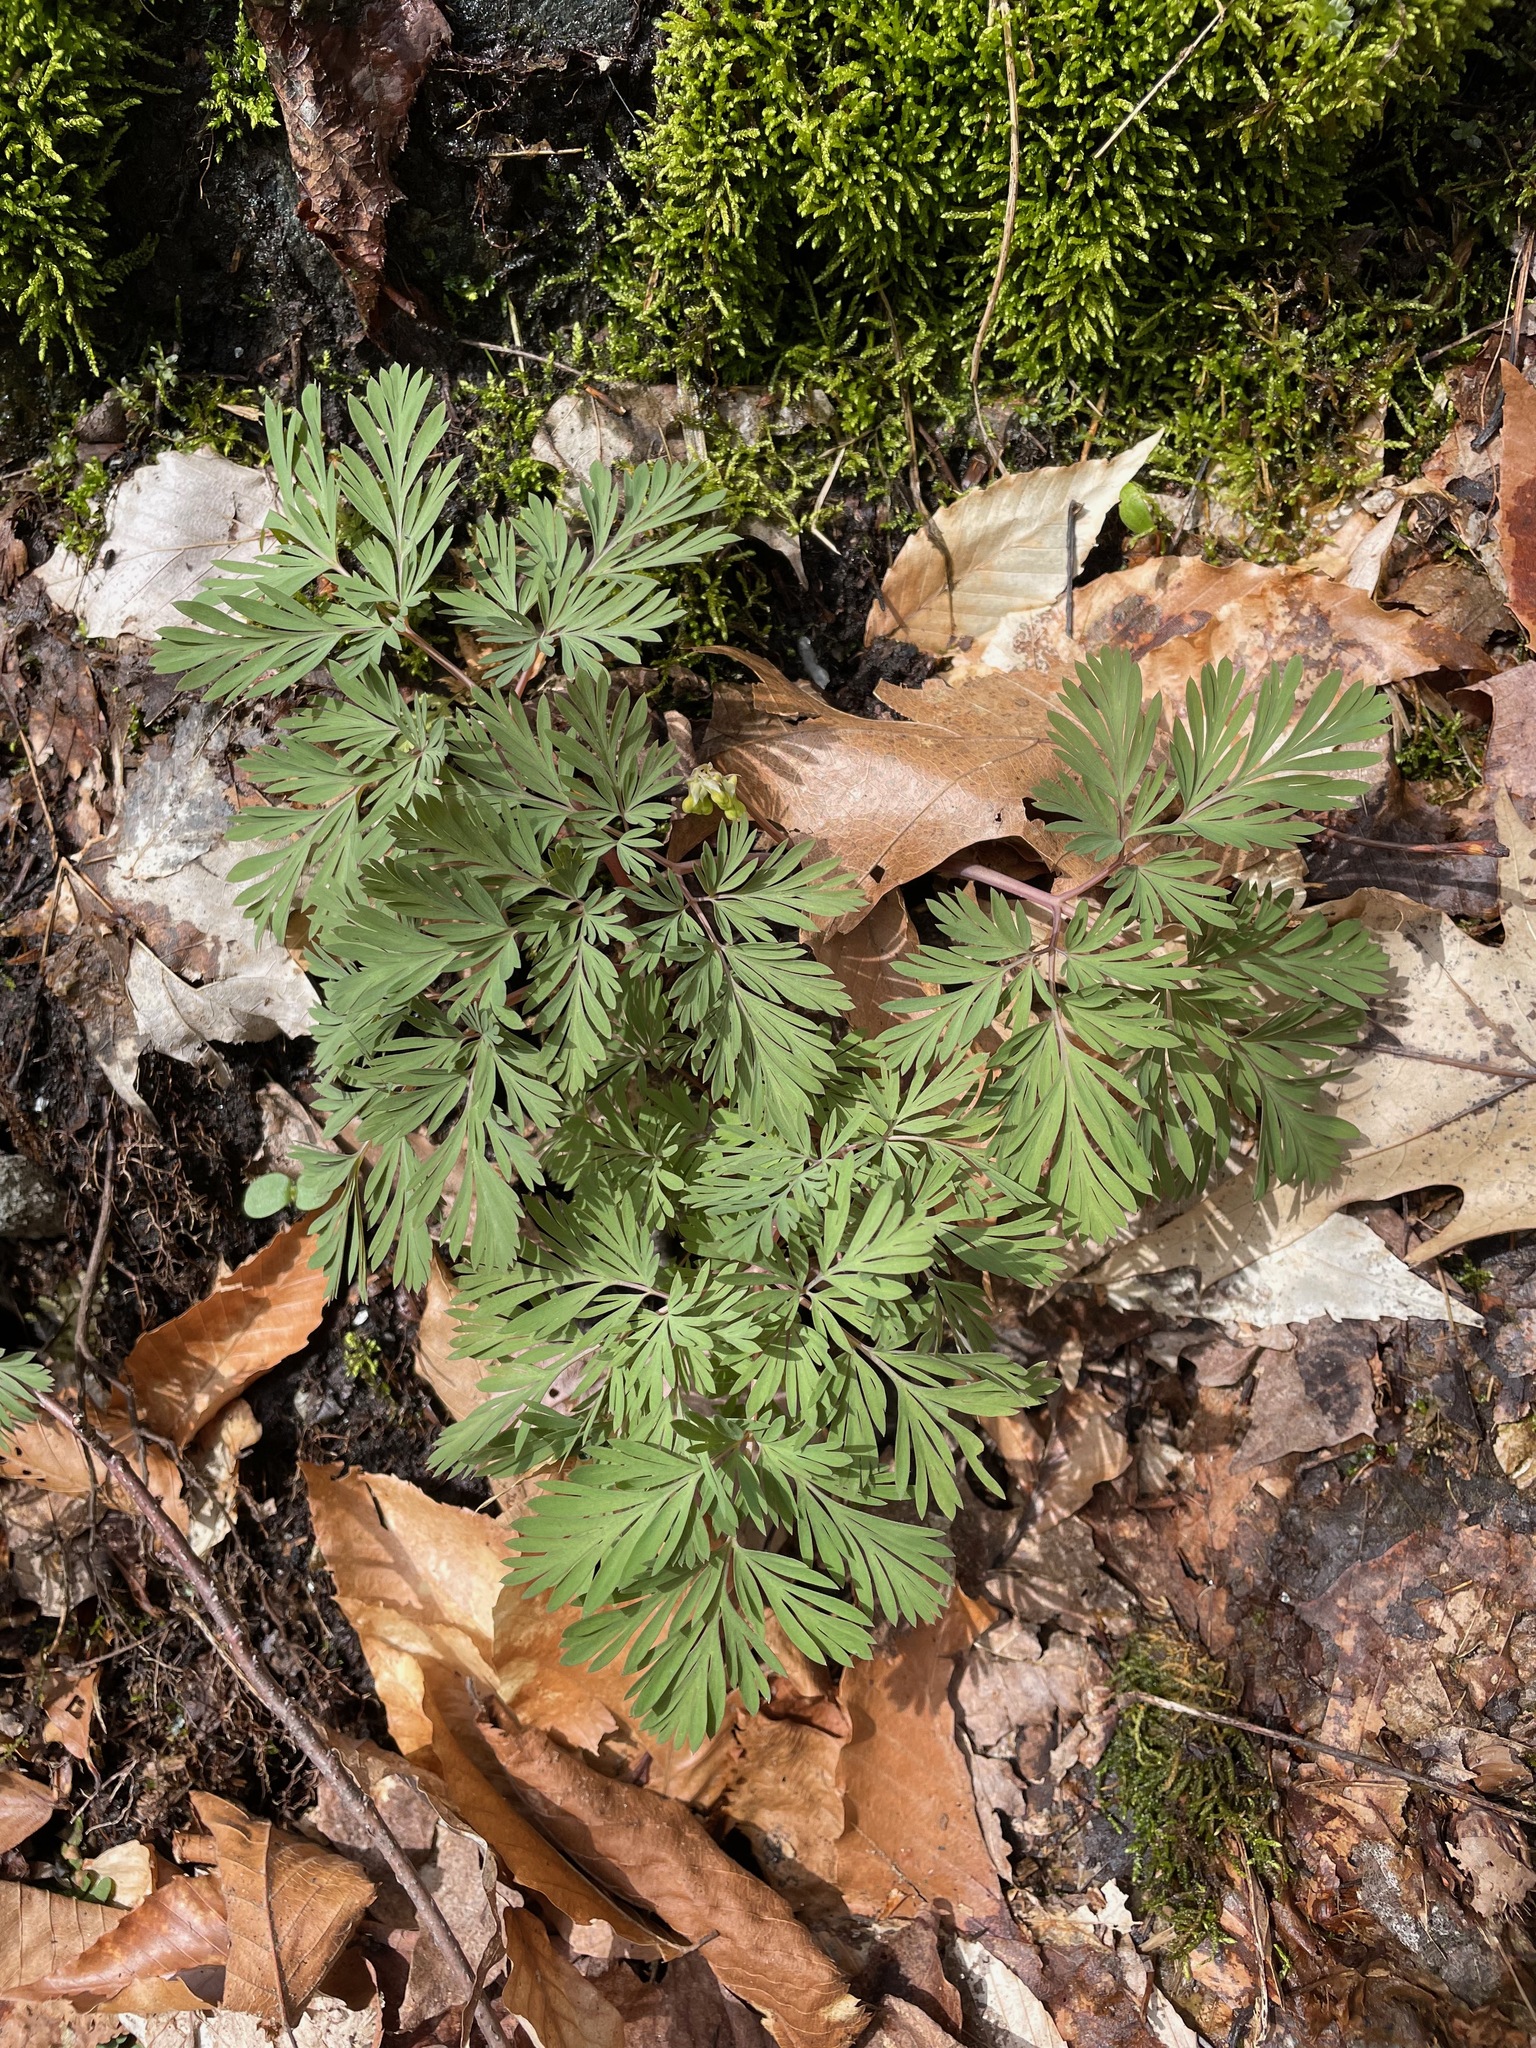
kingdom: Plantae
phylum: Tracheophyta
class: Magnoliopsida
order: Ranunculales
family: Papaveraceae
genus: Dicentra
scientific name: Dicentra cucullaria
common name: Dutchman's breeches
